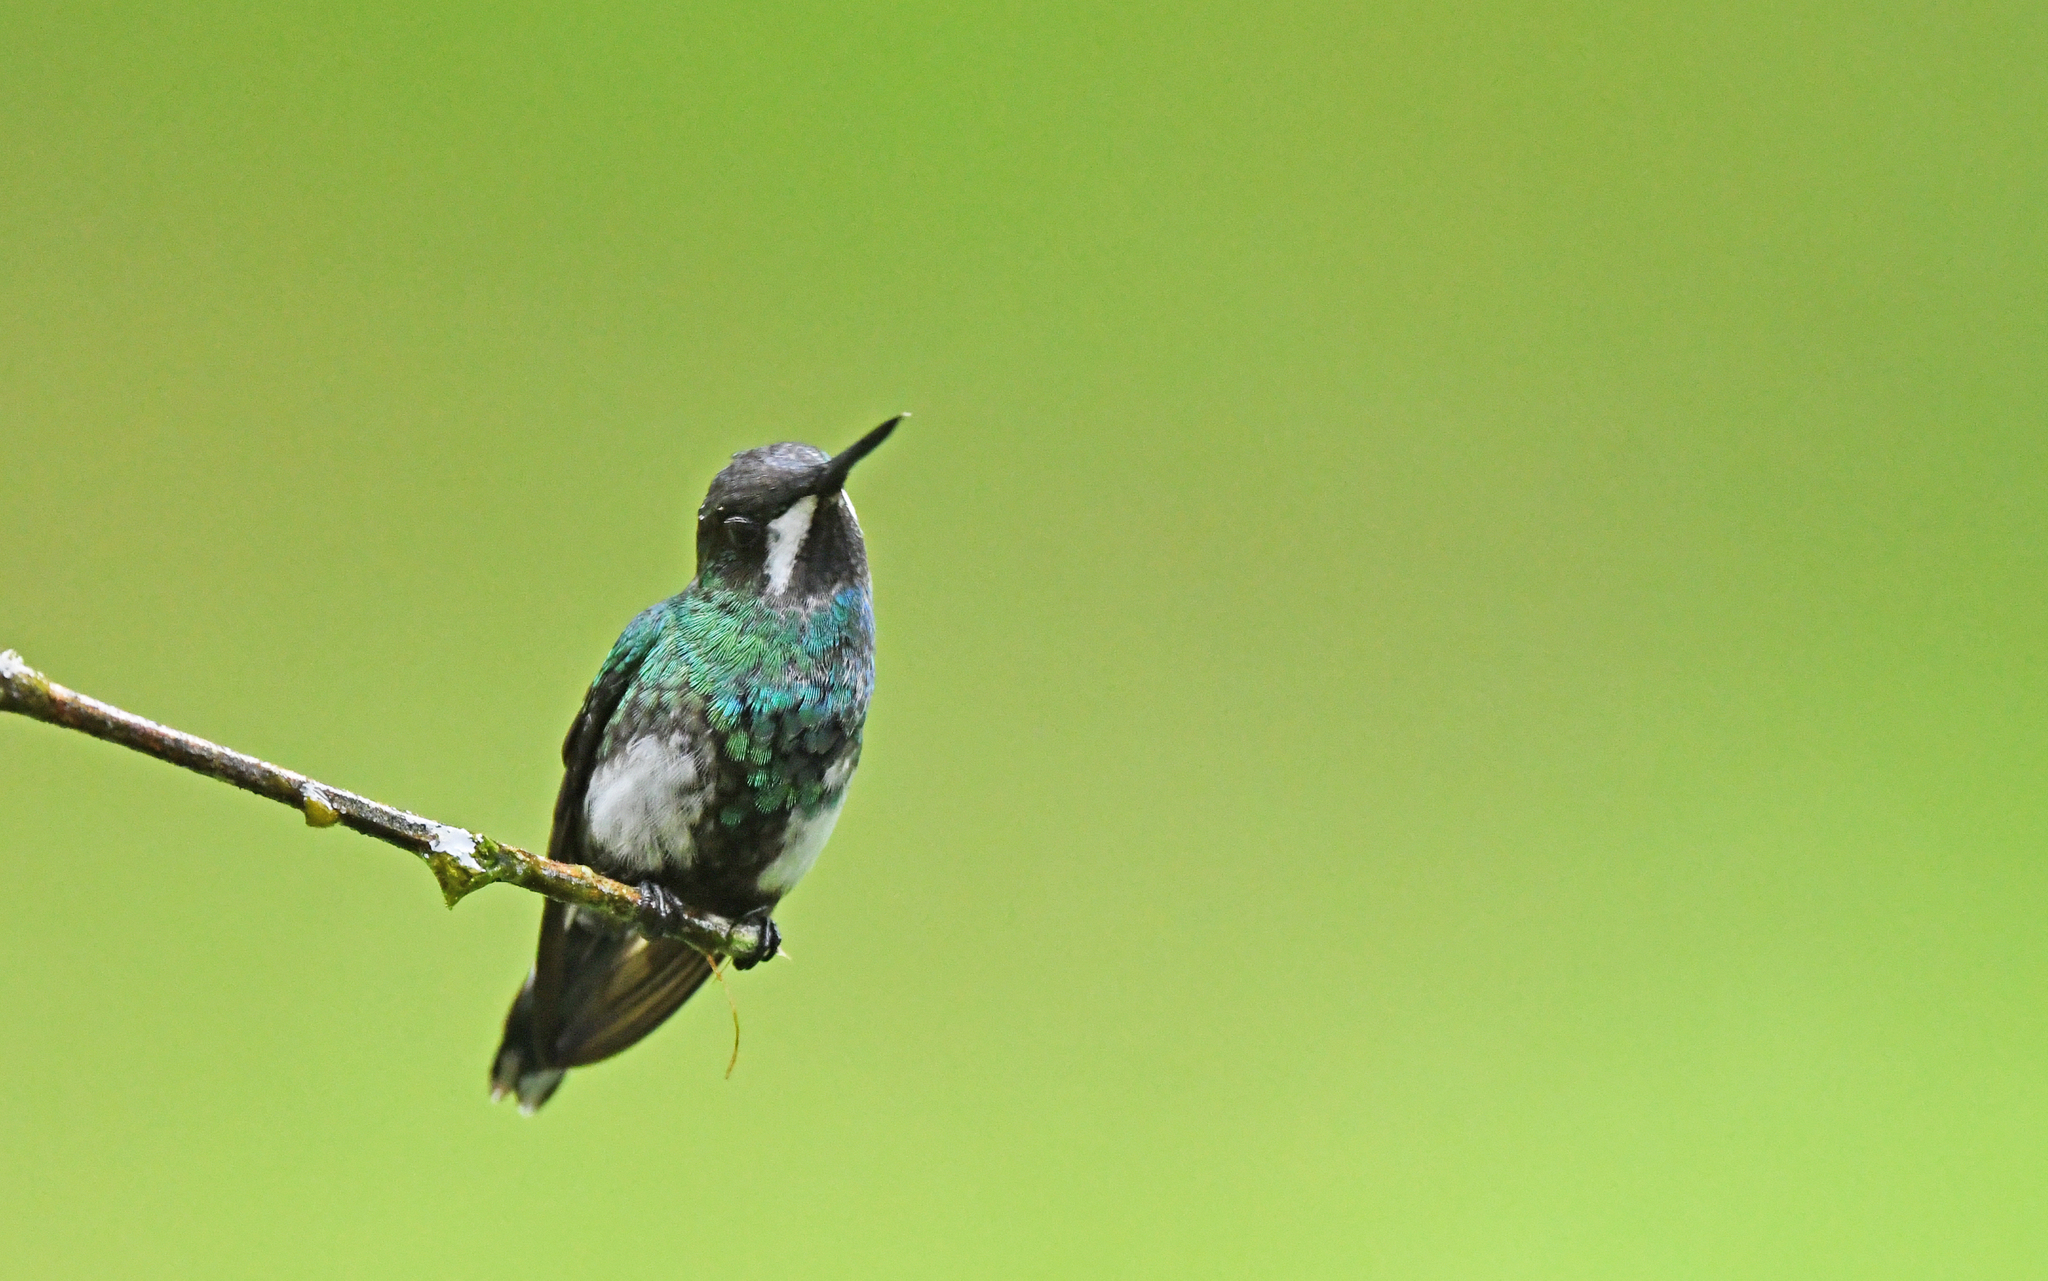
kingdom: Animalia
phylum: Chordata
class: Aves
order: Apodiformes
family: Trochilidae
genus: Discosura
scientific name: Discosura conversii
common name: Green thorntail
